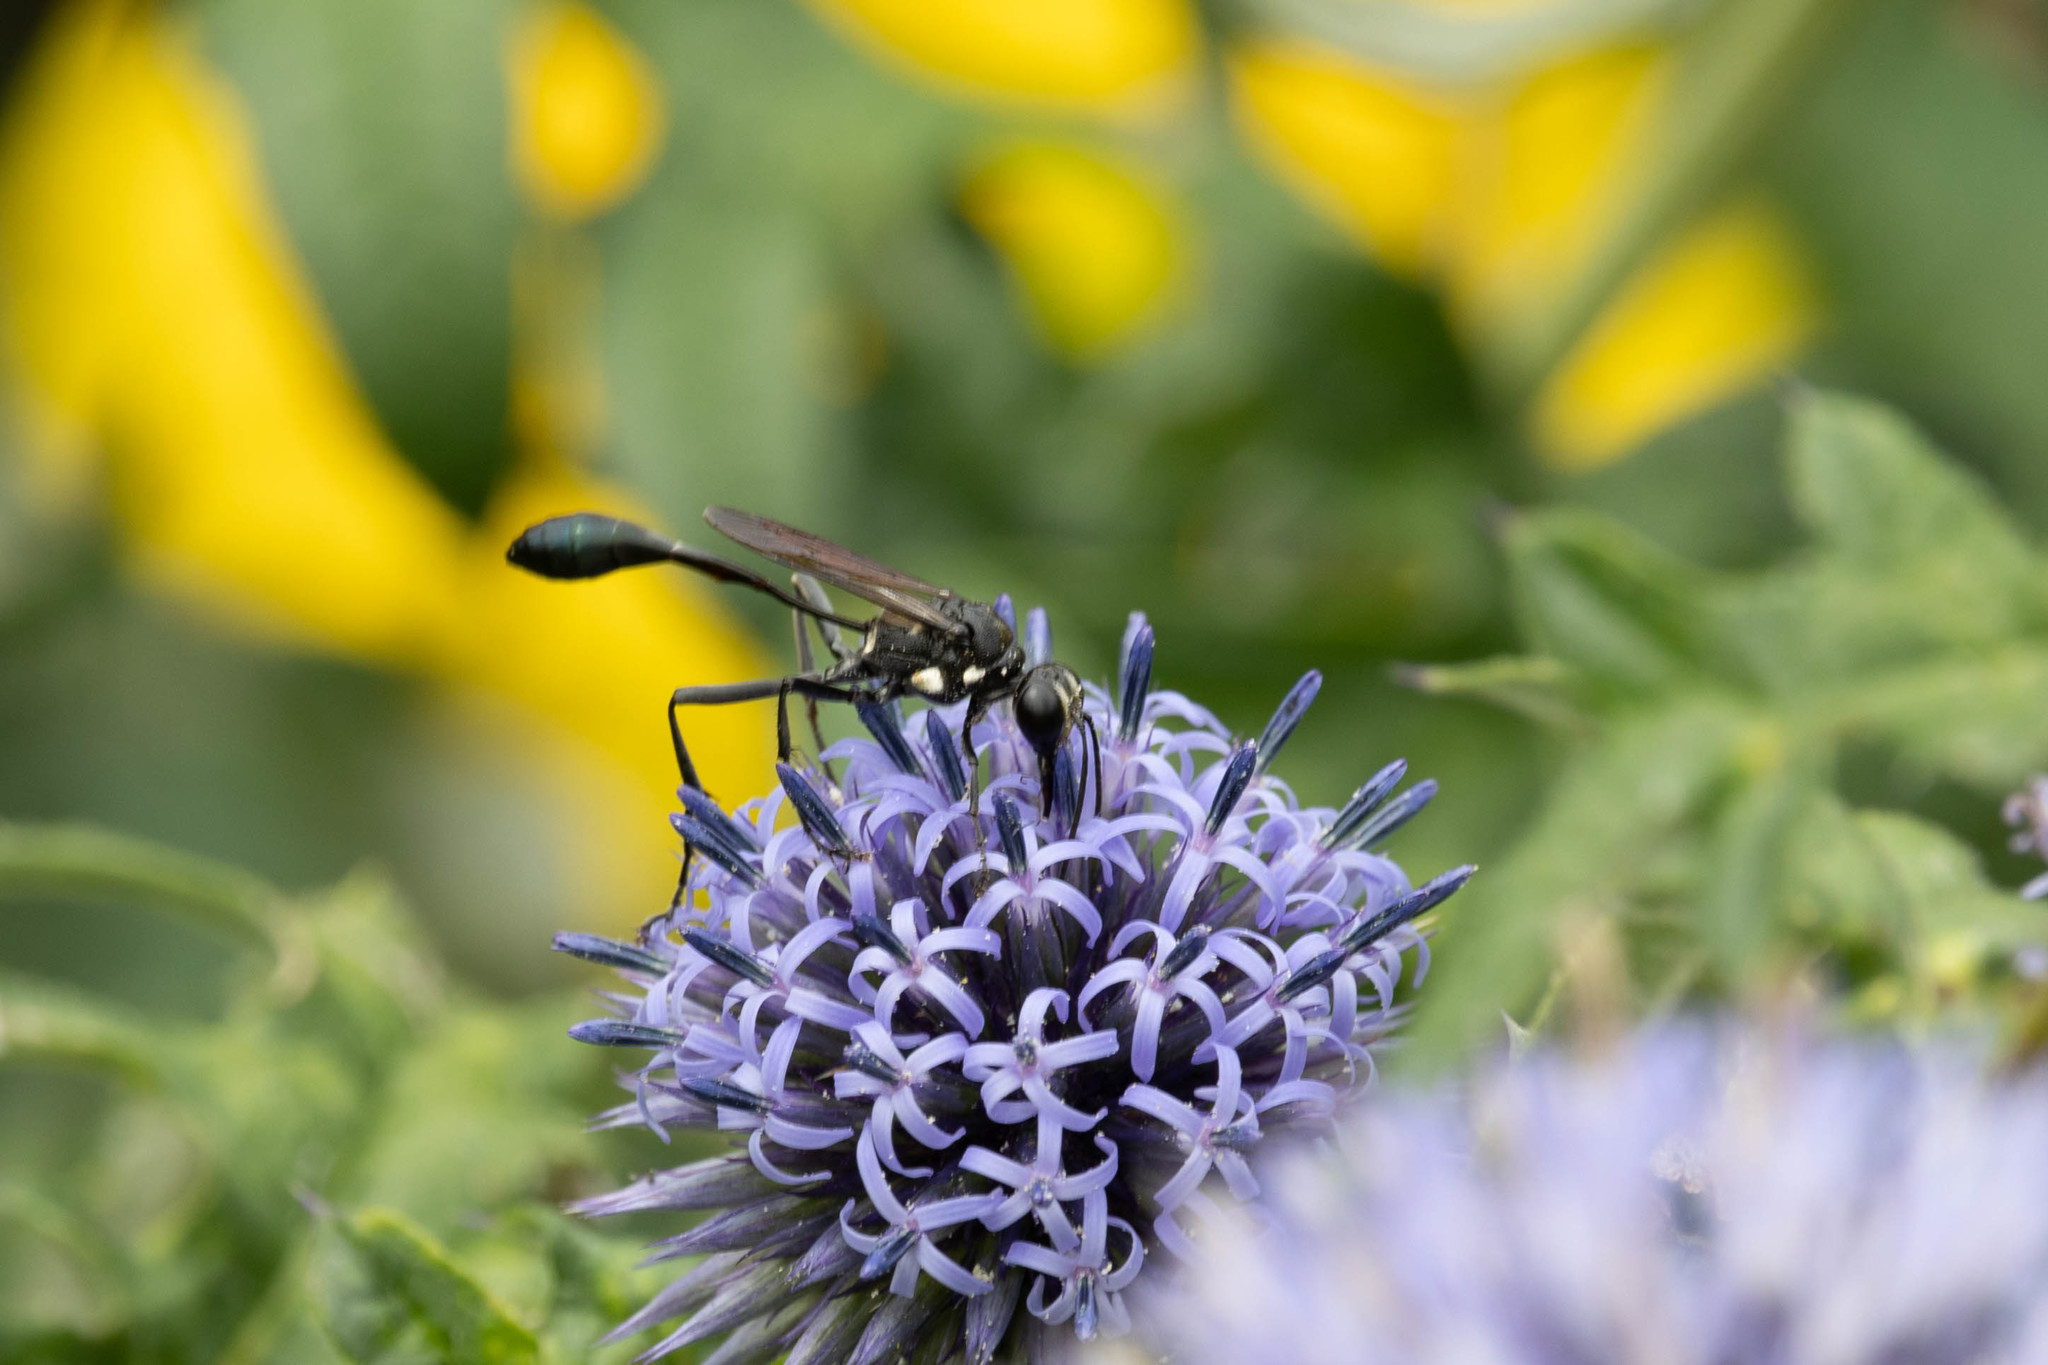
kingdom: Animalia
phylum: Arthropoda
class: Insecta
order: Hymenoptera
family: Sphecidae
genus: Eremnophila
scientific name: Eremnophila aureonotata
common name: Gold-marked thread-waisted wasp
